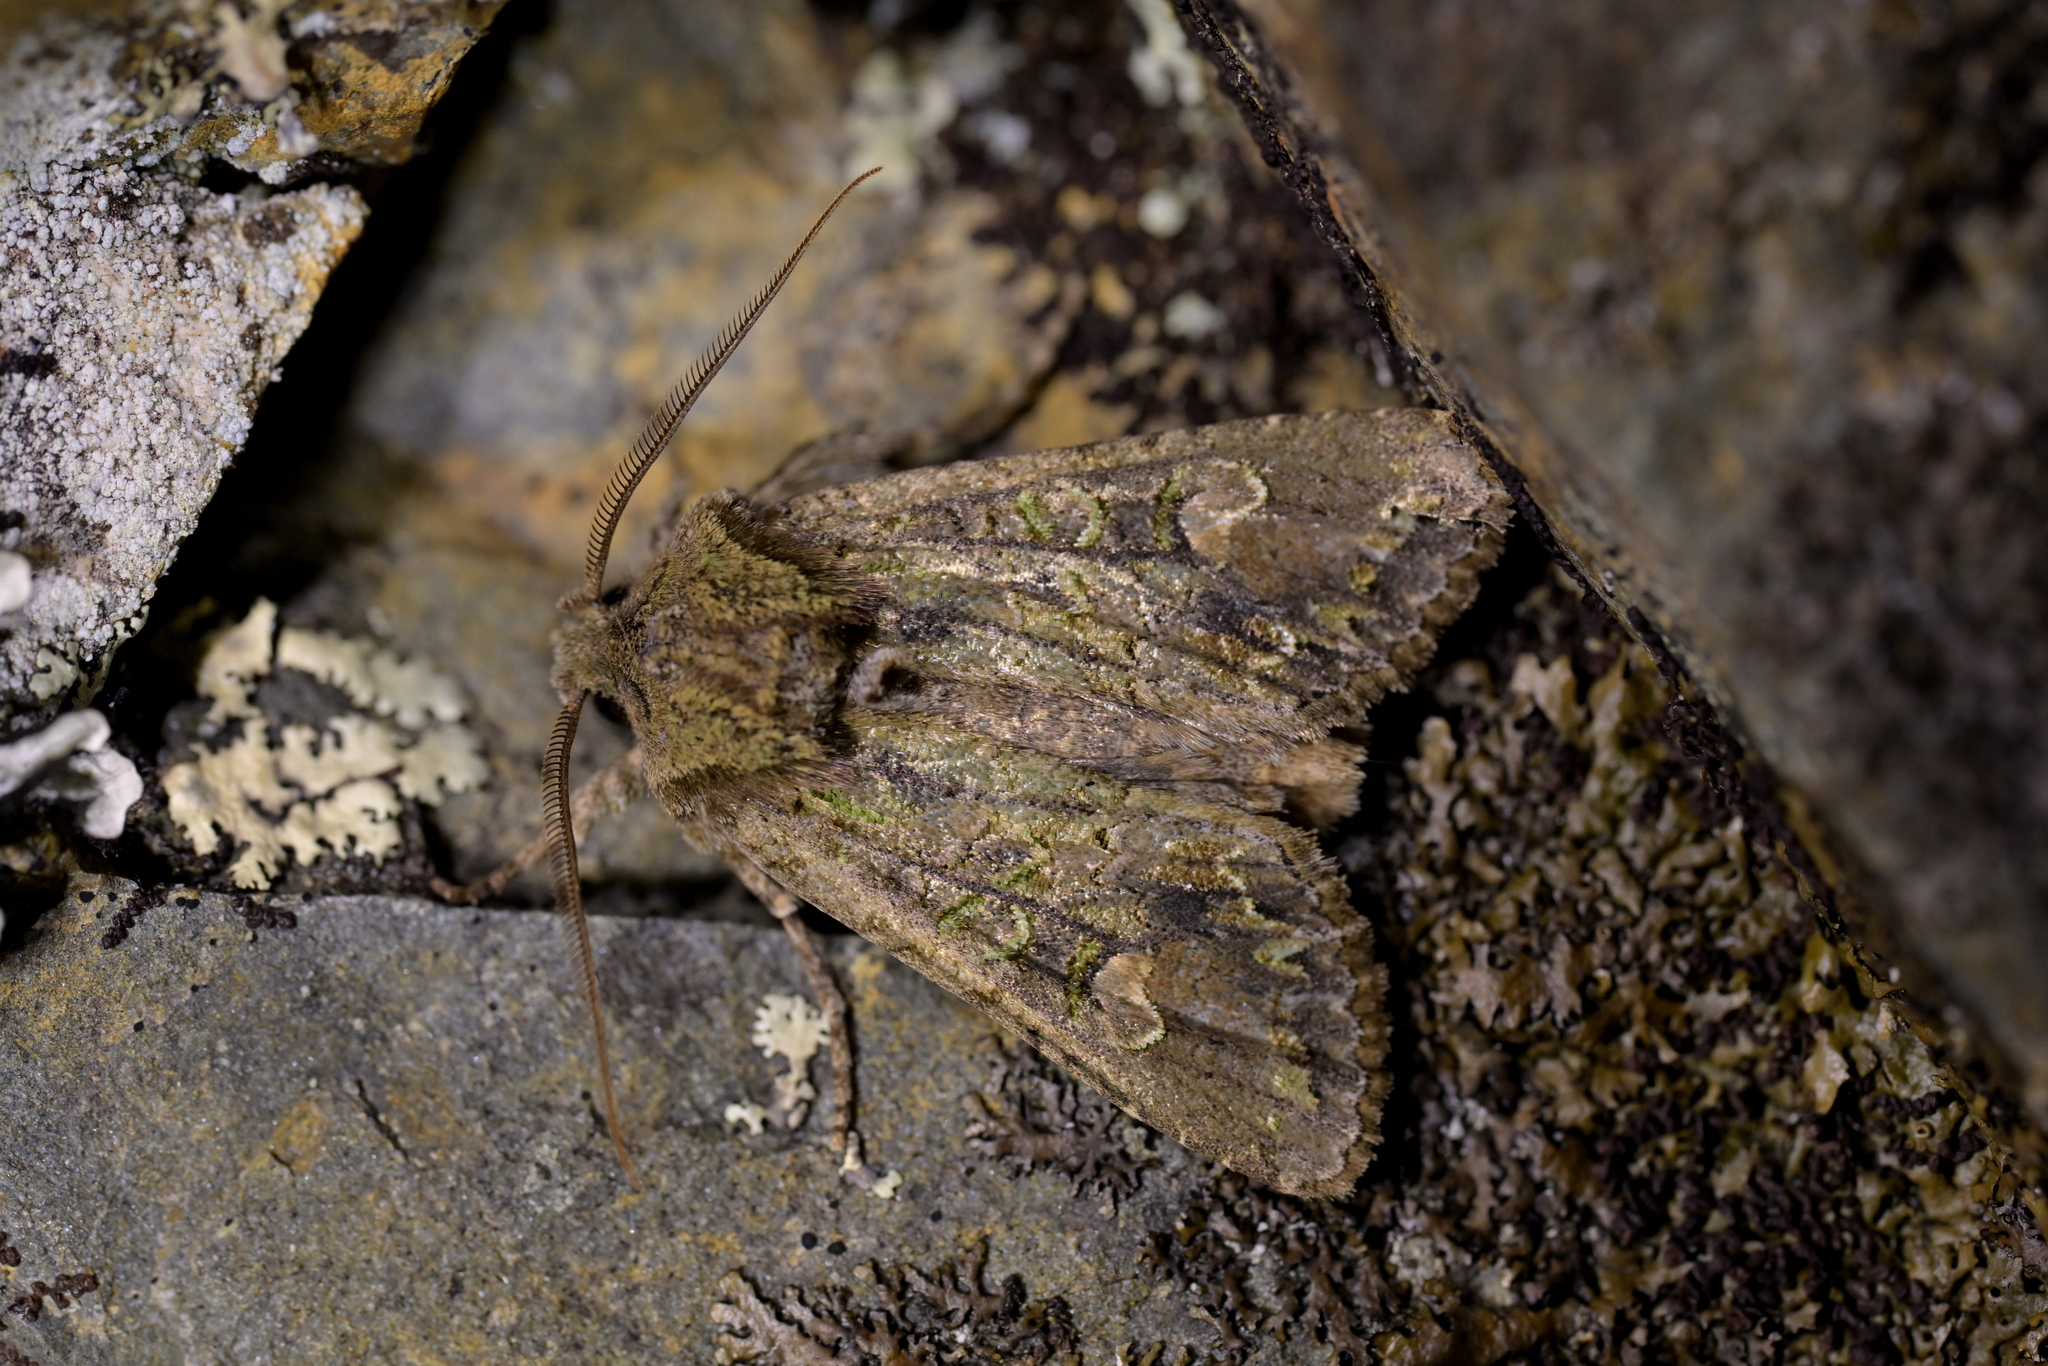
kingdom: Animalia
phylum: Arthropoda
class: Insecta
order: Lepidoptera
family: Noctuidae
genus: Ichneutica
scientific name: Ichneutica insignis
